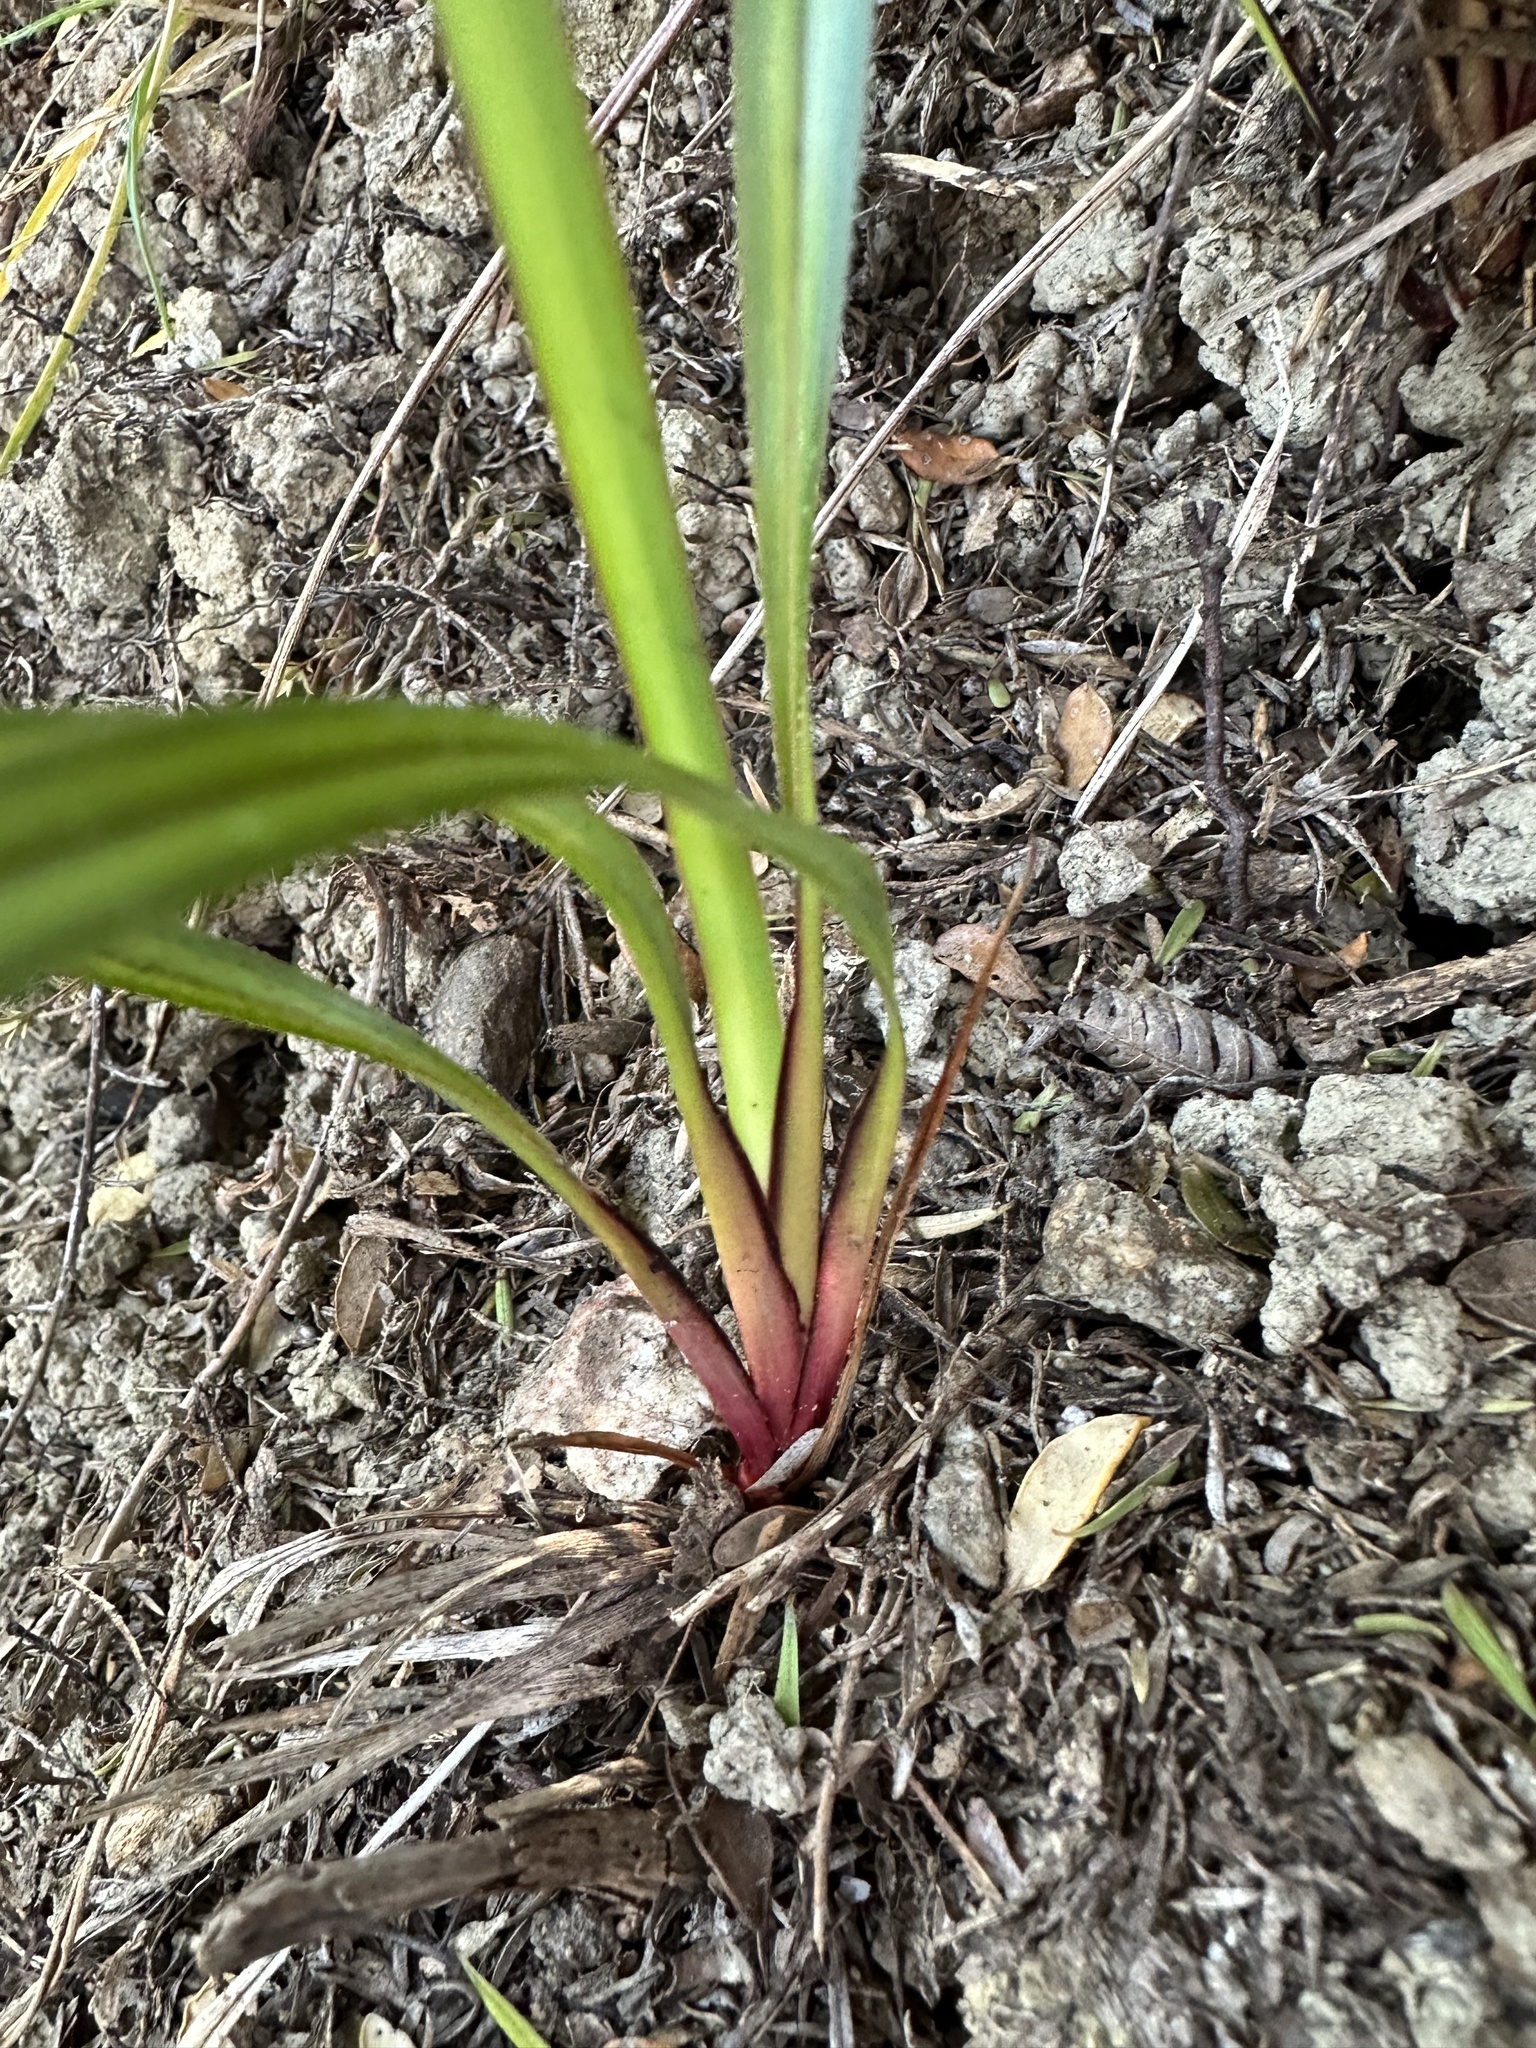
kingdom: Plantae
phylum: Tracheophyta
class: Liliopsida
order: Asparagales
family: Asphodelaceae
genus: Dianella
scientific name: Dianella nigra
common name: New zealand-blueberry
